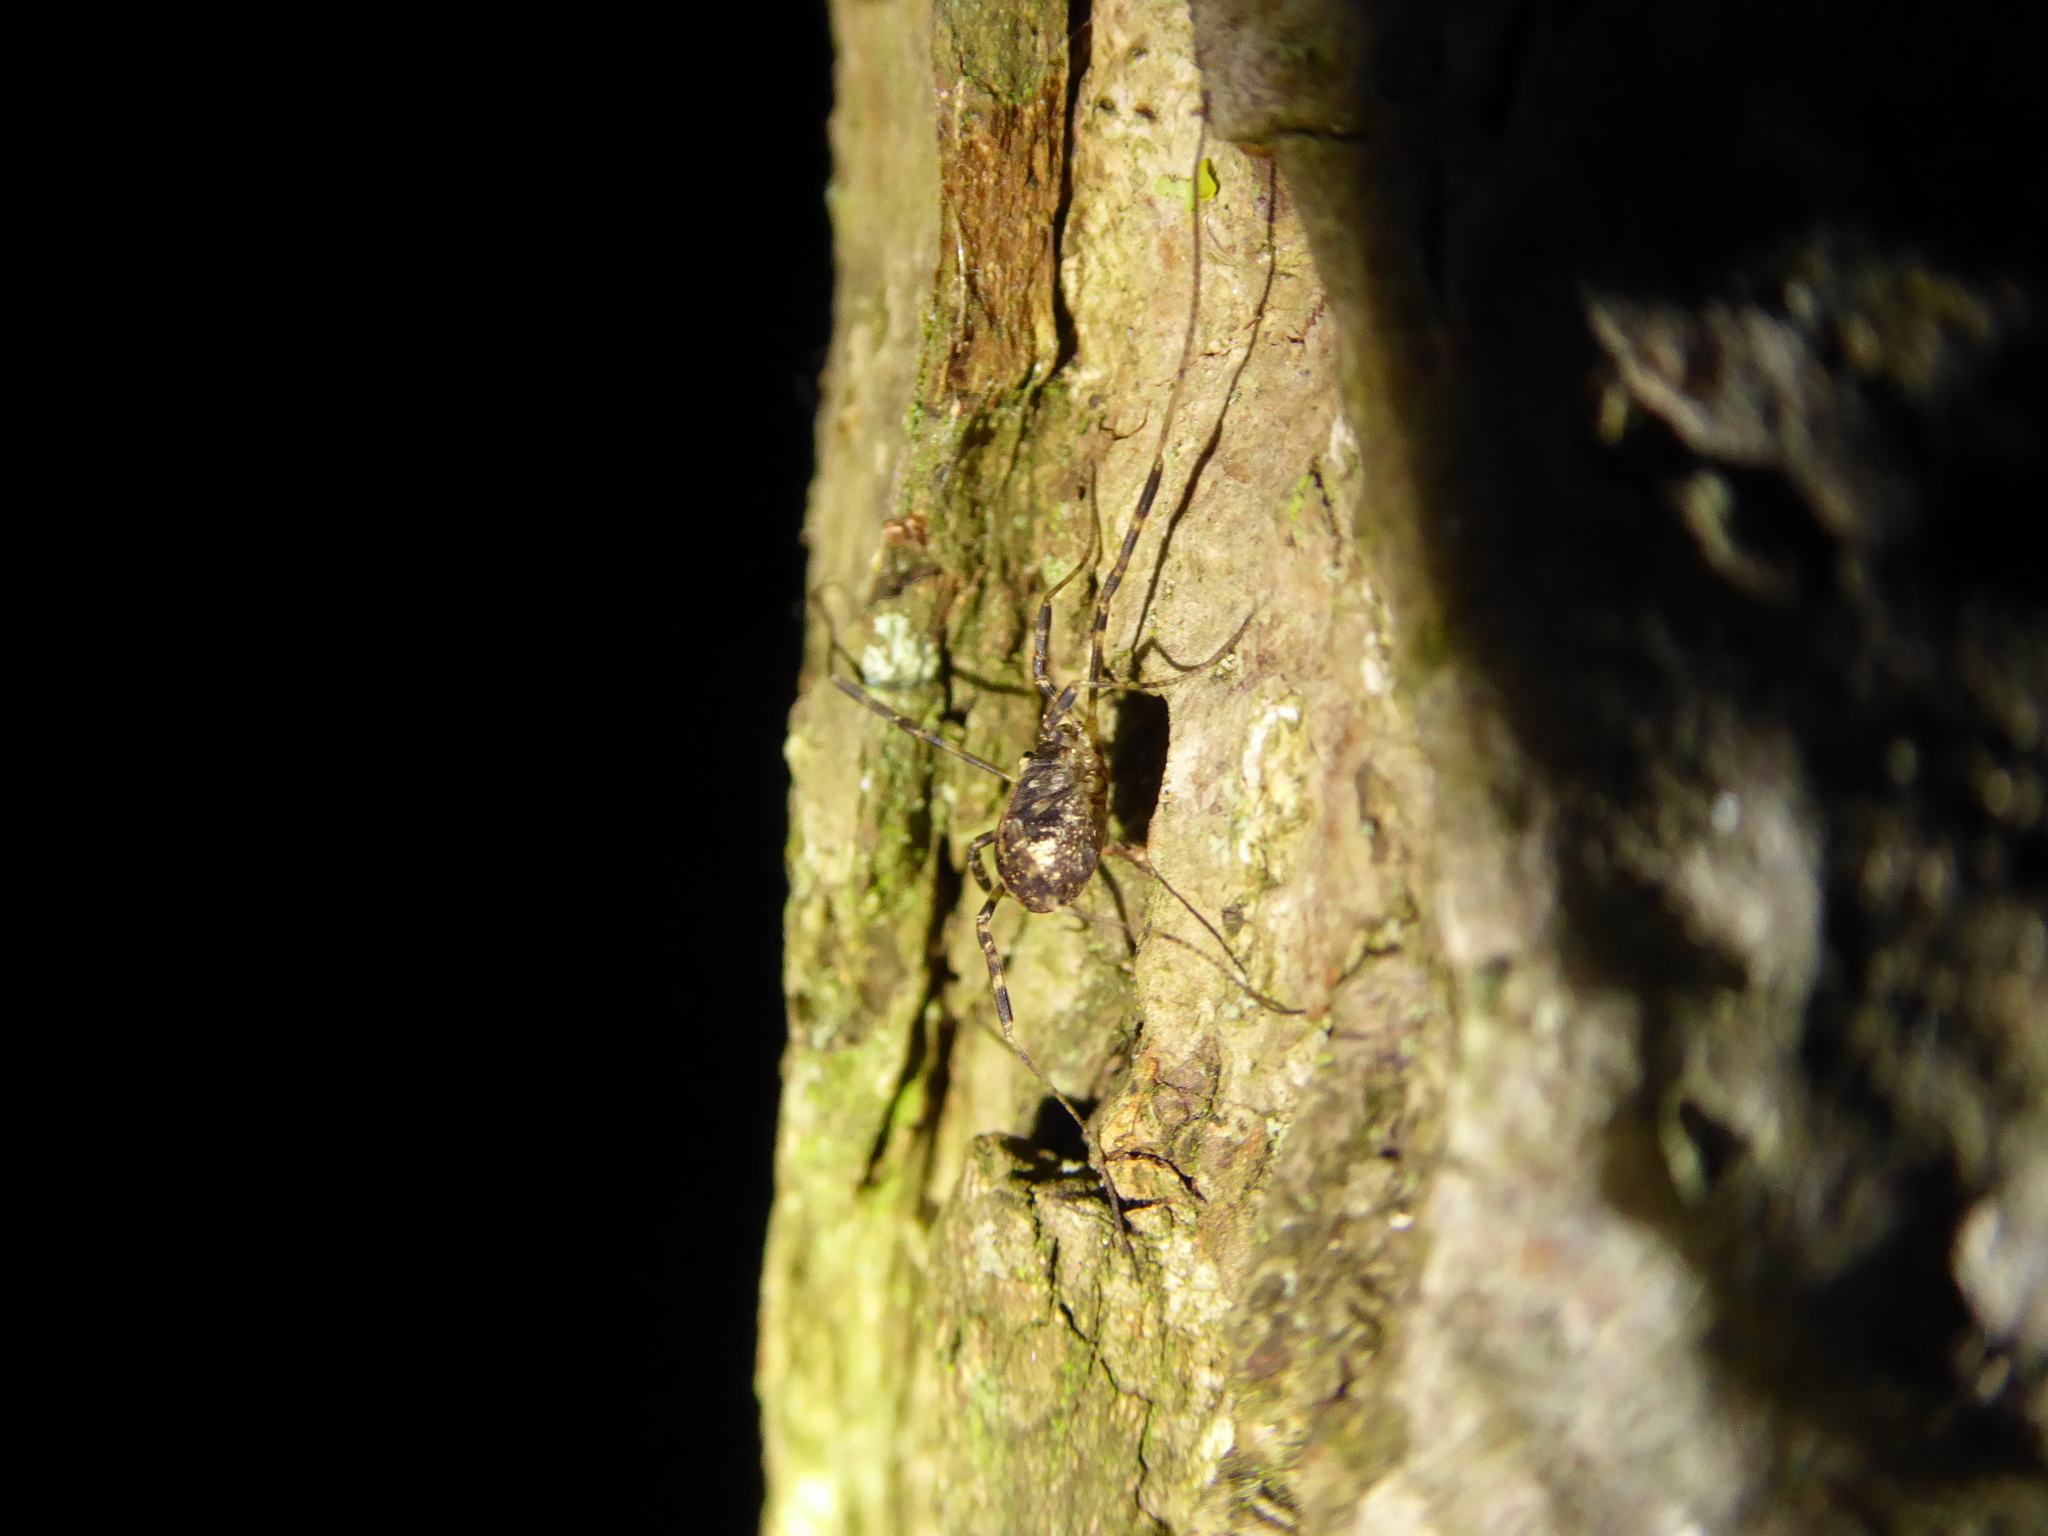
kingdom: Animalia
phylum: Arthropoda
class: Arachnida
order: Opiliones
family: Phalangiidae
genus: Paroligolophus
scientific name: Paroligolophus agrestis
